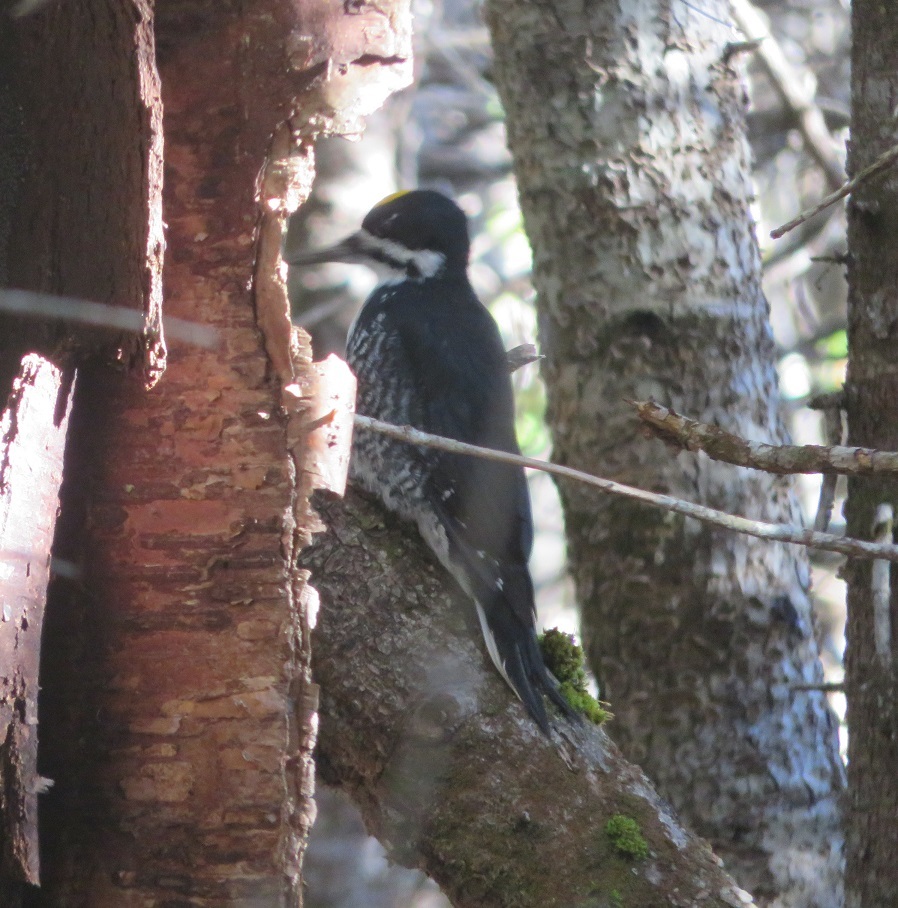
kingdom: Animalia
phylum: Chordata
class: Aves
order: Piciformes
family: Picidae
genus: Picoides
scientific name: Picoides arcticus
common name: Black-backed woodpecker
